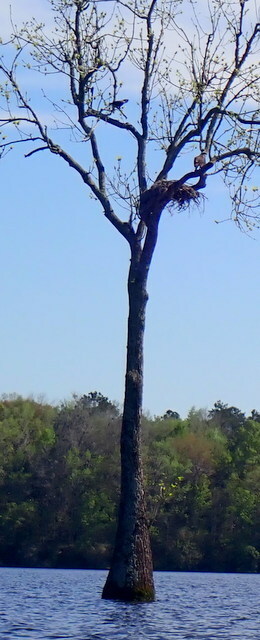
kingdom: Animalia
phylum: Chordata
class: Aves
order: Accipitriformes
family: Pandionidae
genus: Pandion
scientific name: Pandion haliaetus
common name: Osprey
